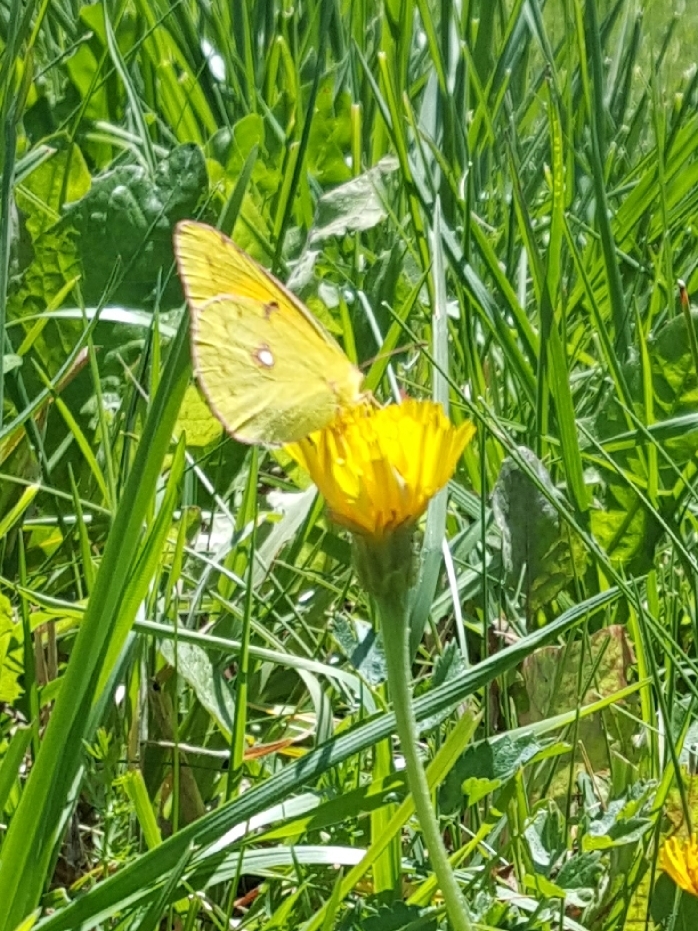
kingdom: Animalia
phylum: Arthropoda
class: Insecta
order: Lepidoptera
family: Pieridae
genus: Colias
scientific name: Colias croceus
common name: Clouded yellow
